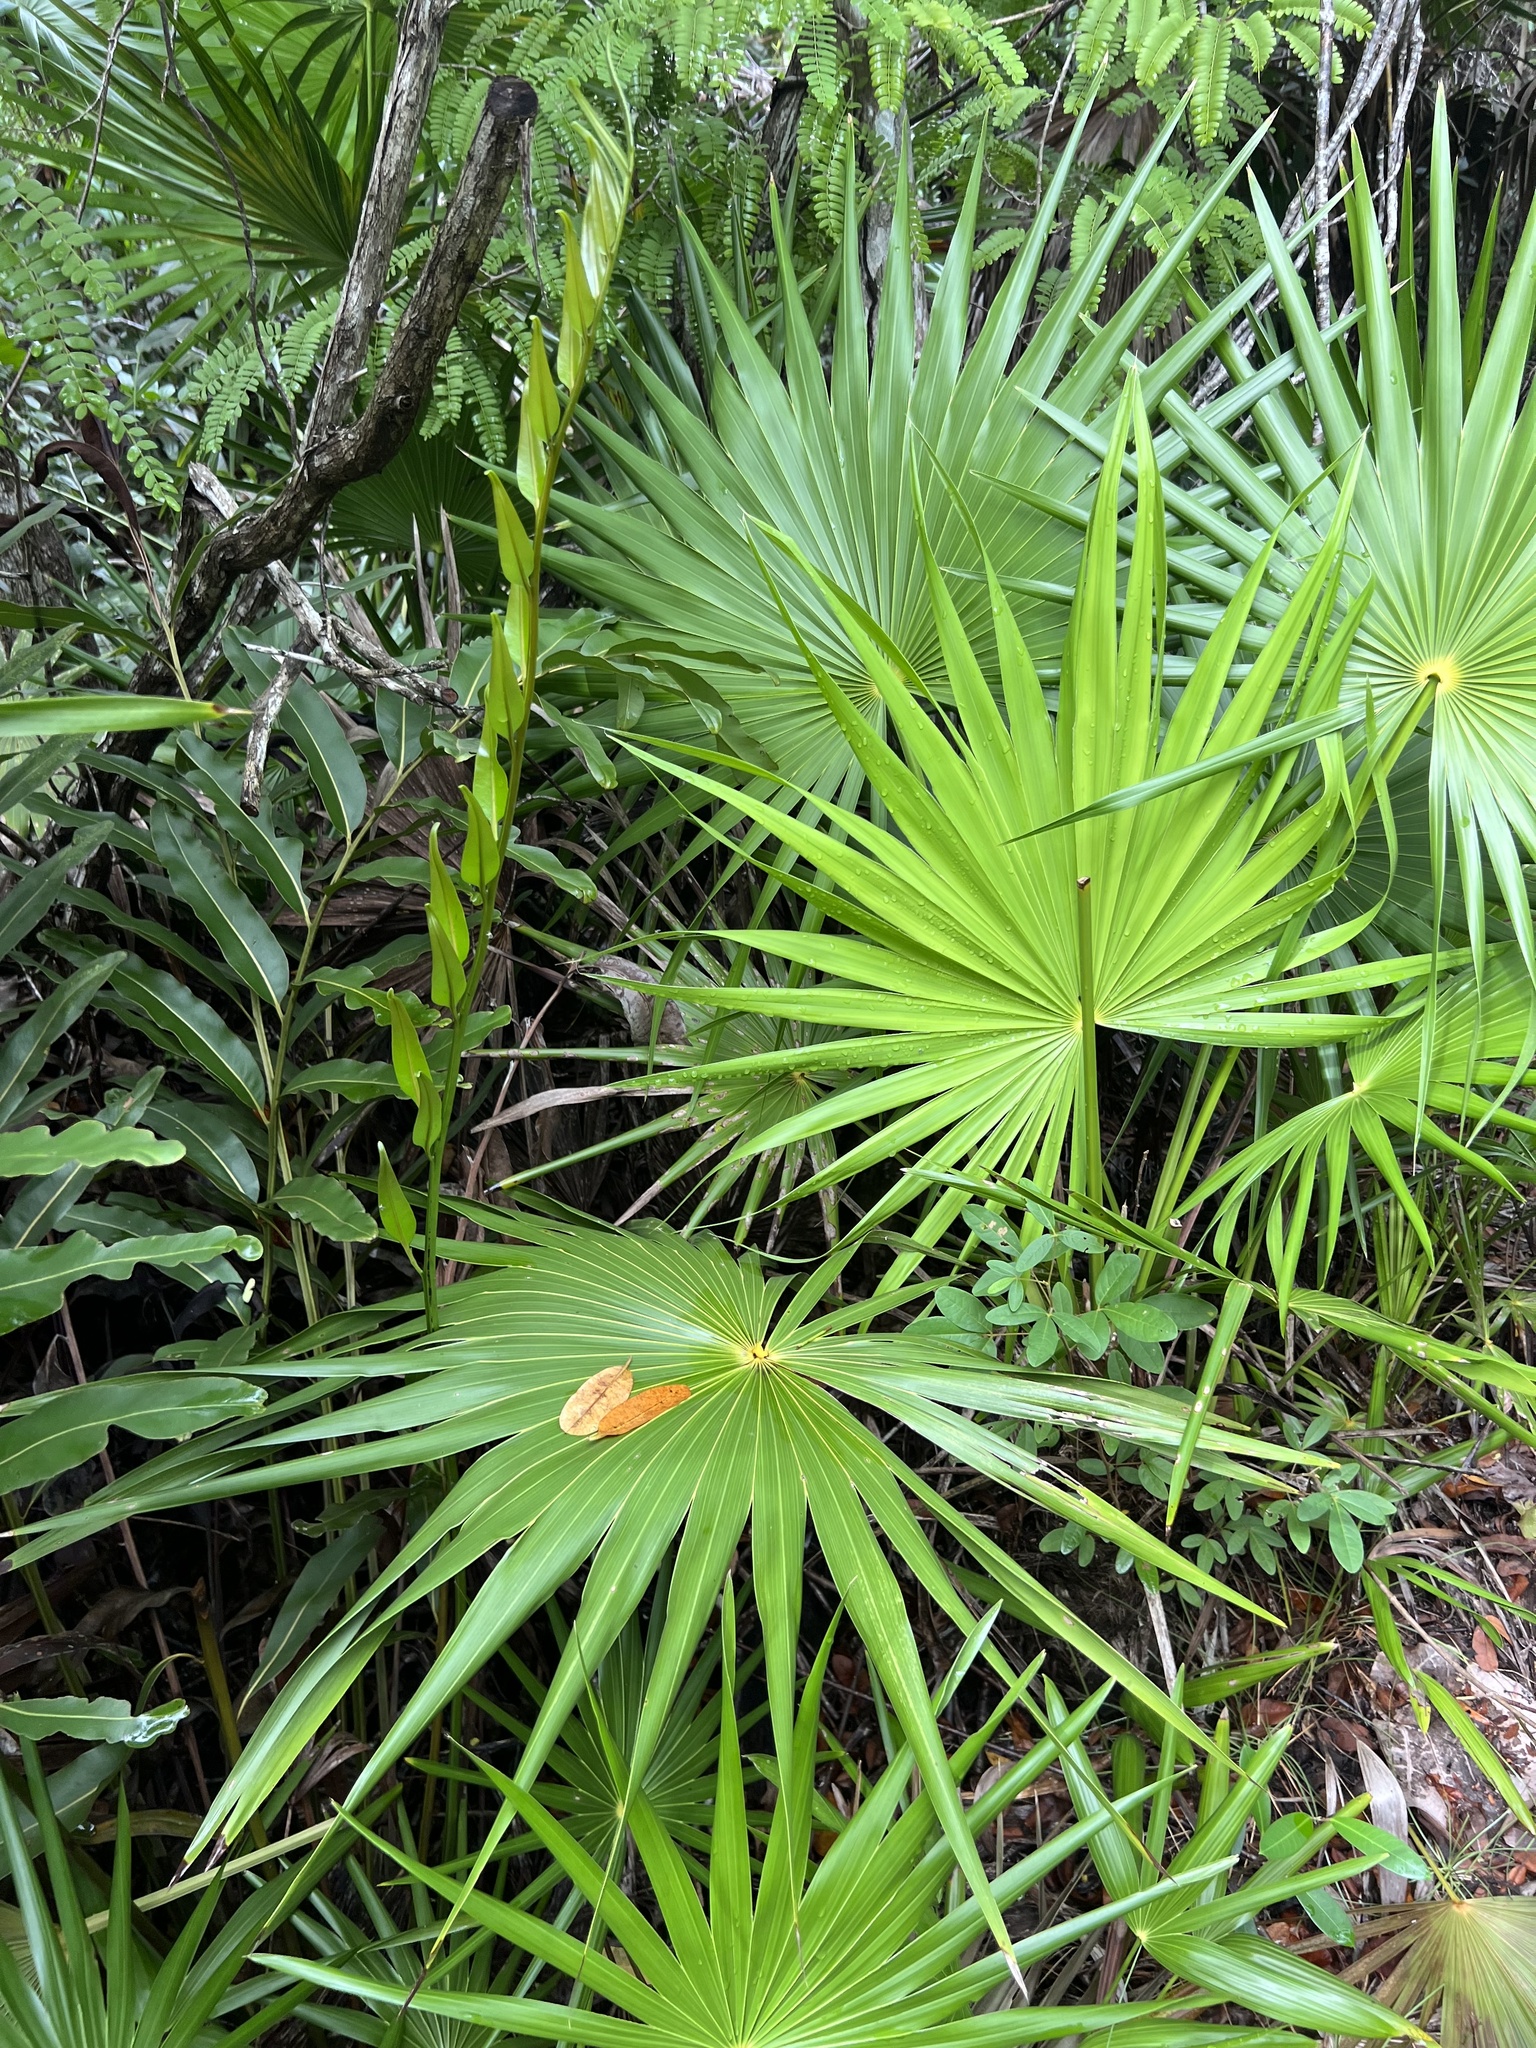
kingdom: Plantae
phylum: Tracheophyta
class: Liliopsida
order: Arecales
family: Arecaceae
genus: Thrinax
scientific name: Thrinax radiata
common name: Florida thatch
